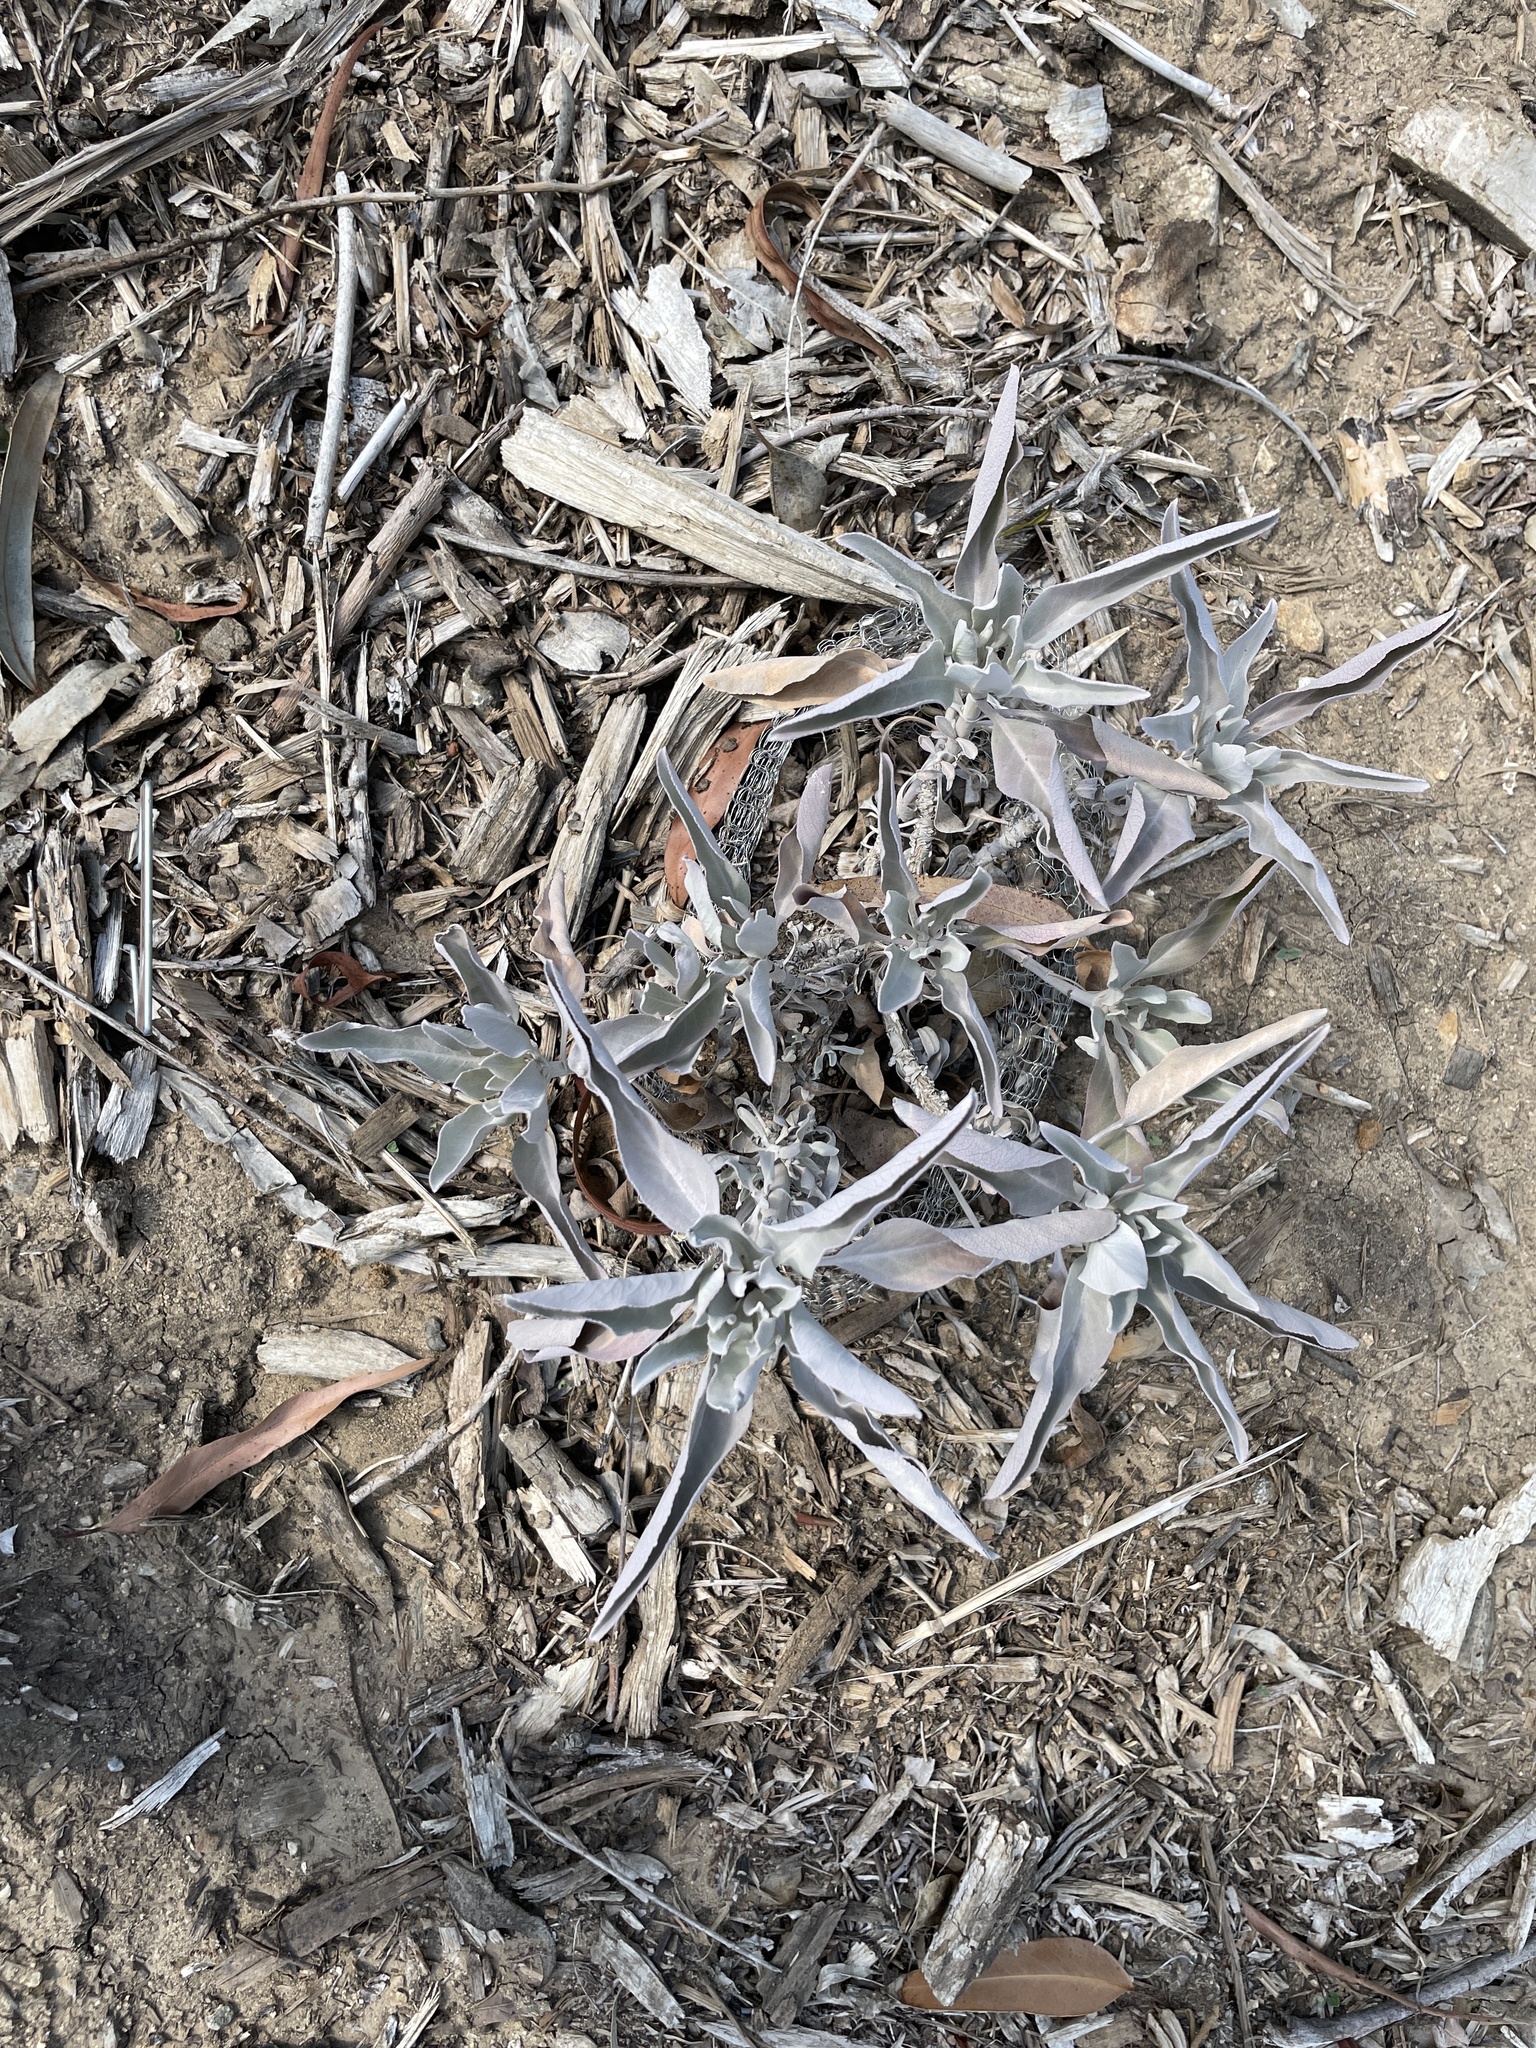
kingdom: Plantae
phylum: Tracheophyta
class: Magnoliopsida
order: Lamiales
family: Lamiaceae
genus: Salvia
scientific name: Salvia apiana
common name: White sage
